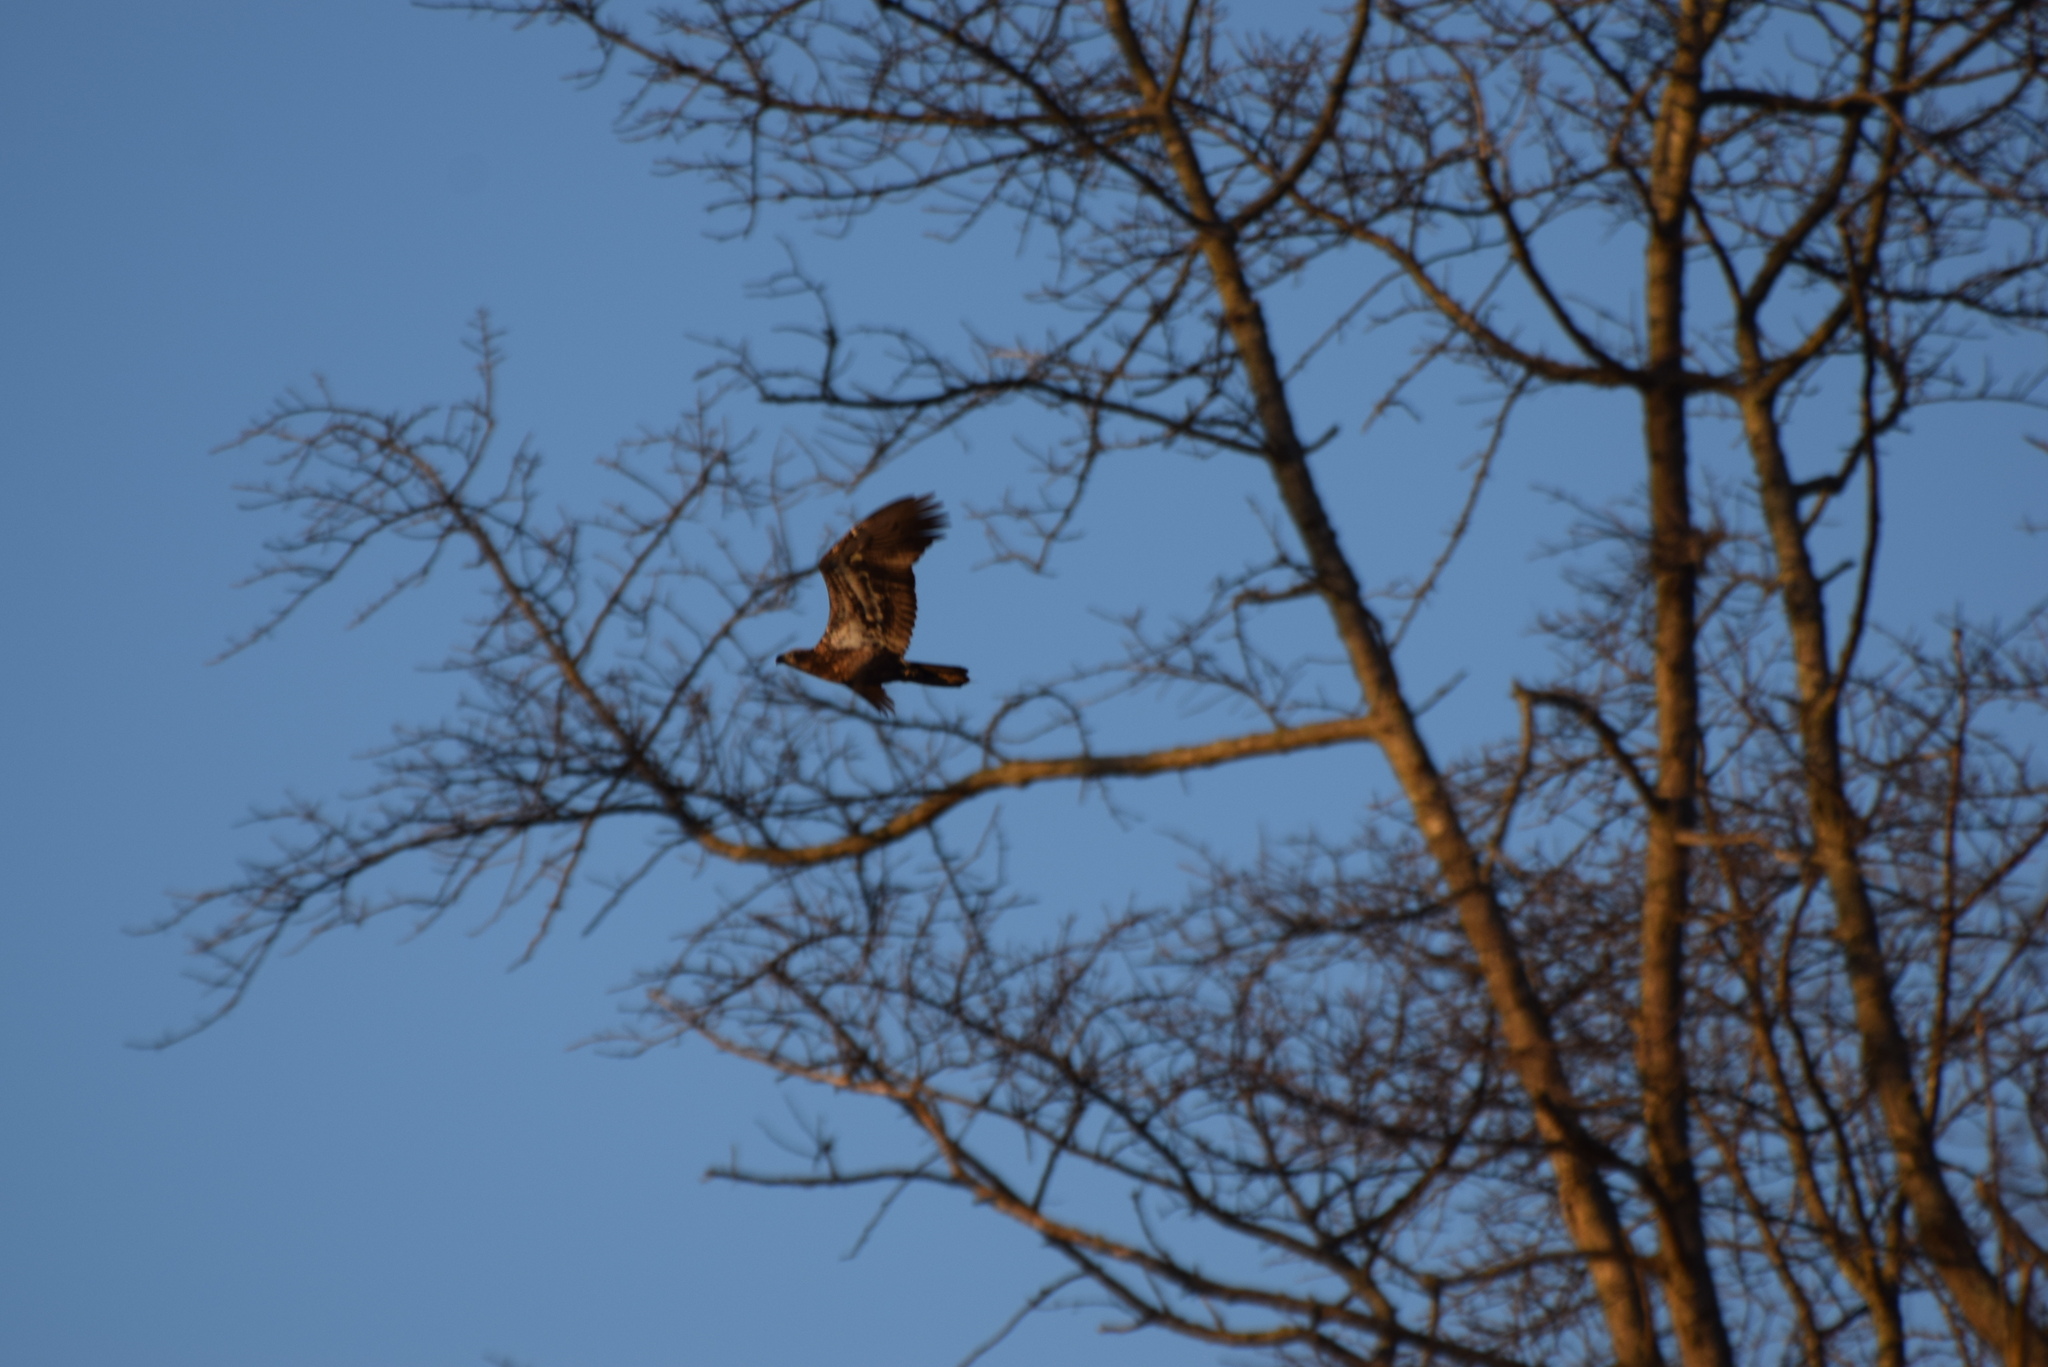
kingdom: Animalia
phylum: Chordata
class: Aves
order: Accipitriformes
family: Accipitridae
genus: Haliaeetus
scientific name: Haliaeetus leucocephalus
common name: Bald eagle
